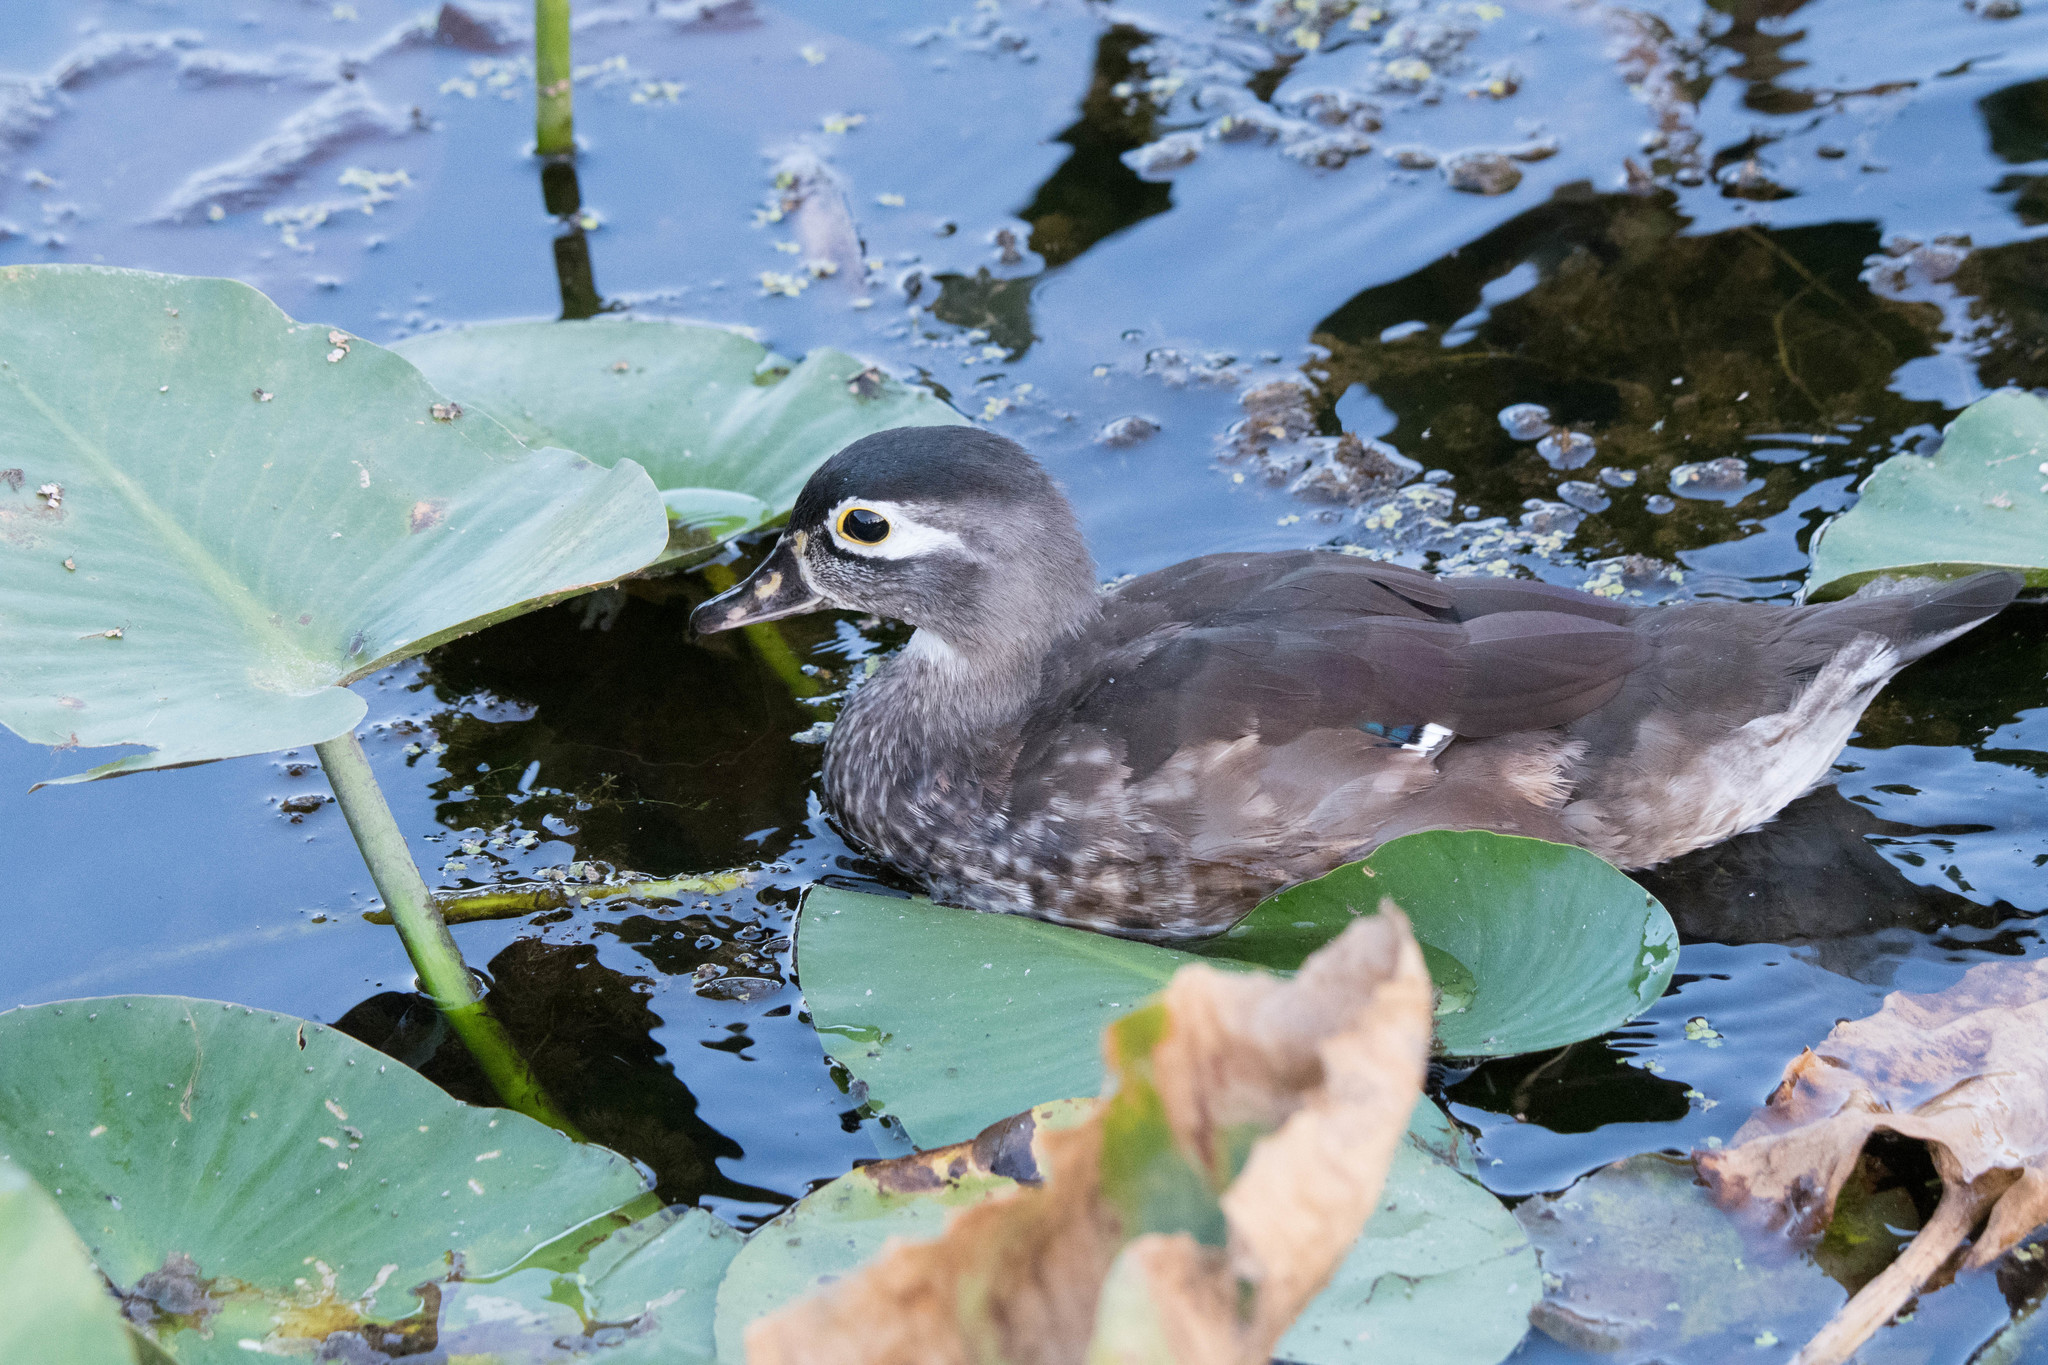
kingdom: Animalia
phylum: Chordata
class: Aves
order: Anseriformes
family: Anatidae
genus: Aix
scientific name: Aix sponsa
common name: Wood duck
